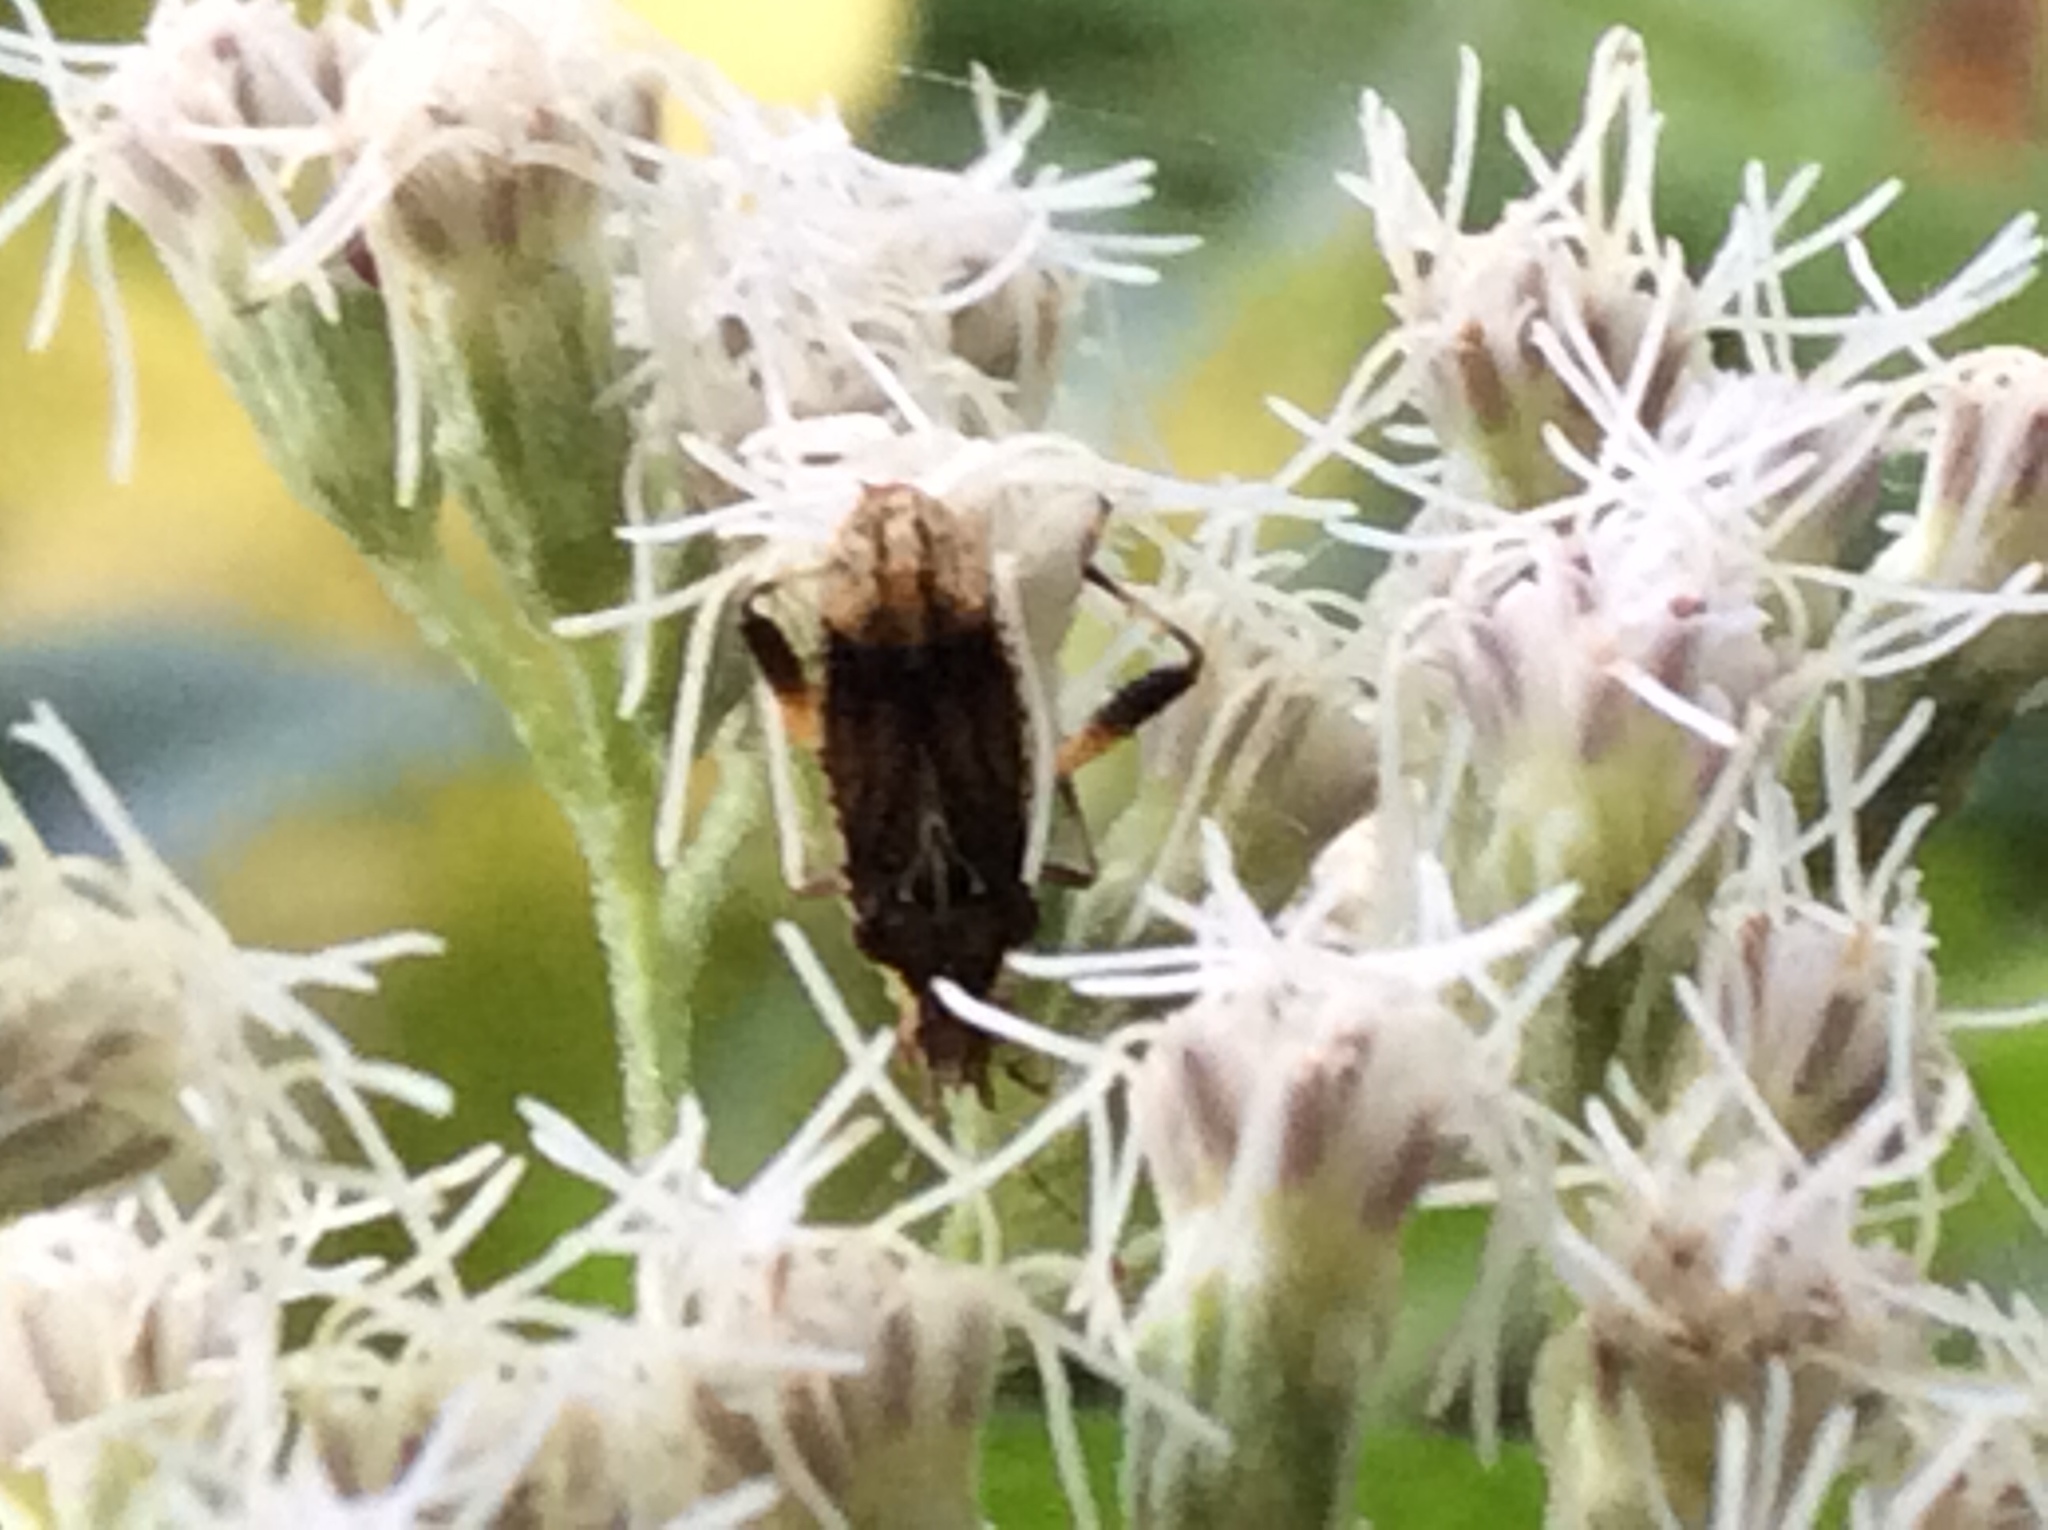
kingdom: Animalia
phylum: Arthropoda
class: Insecta
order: Hemiptera
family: Rhopalidae
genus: Harmostes
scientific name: Harmostes fraterculus
